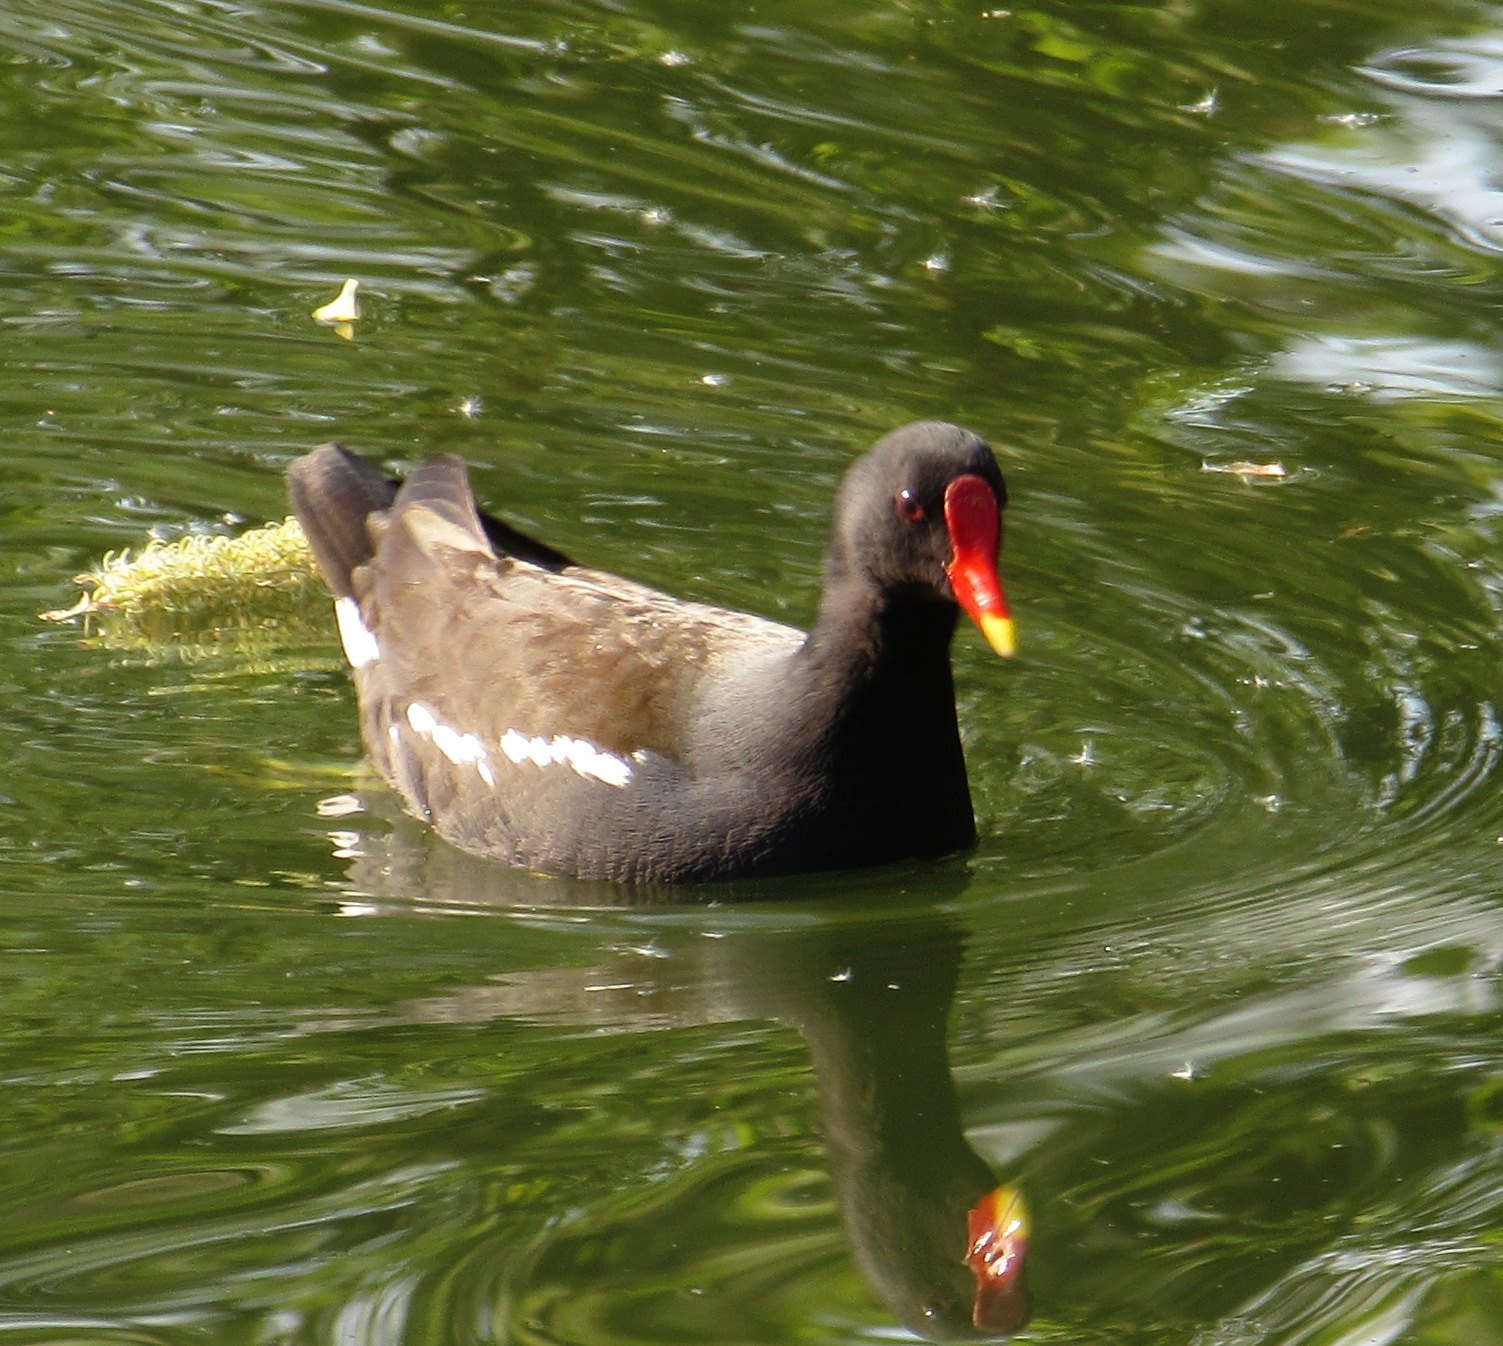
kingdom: Animalia
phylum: Chordata
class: Aves
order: Gruiformes
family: Rallidae
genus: Gallinula
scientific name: Gallinula chloropus
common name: Common moorhen
